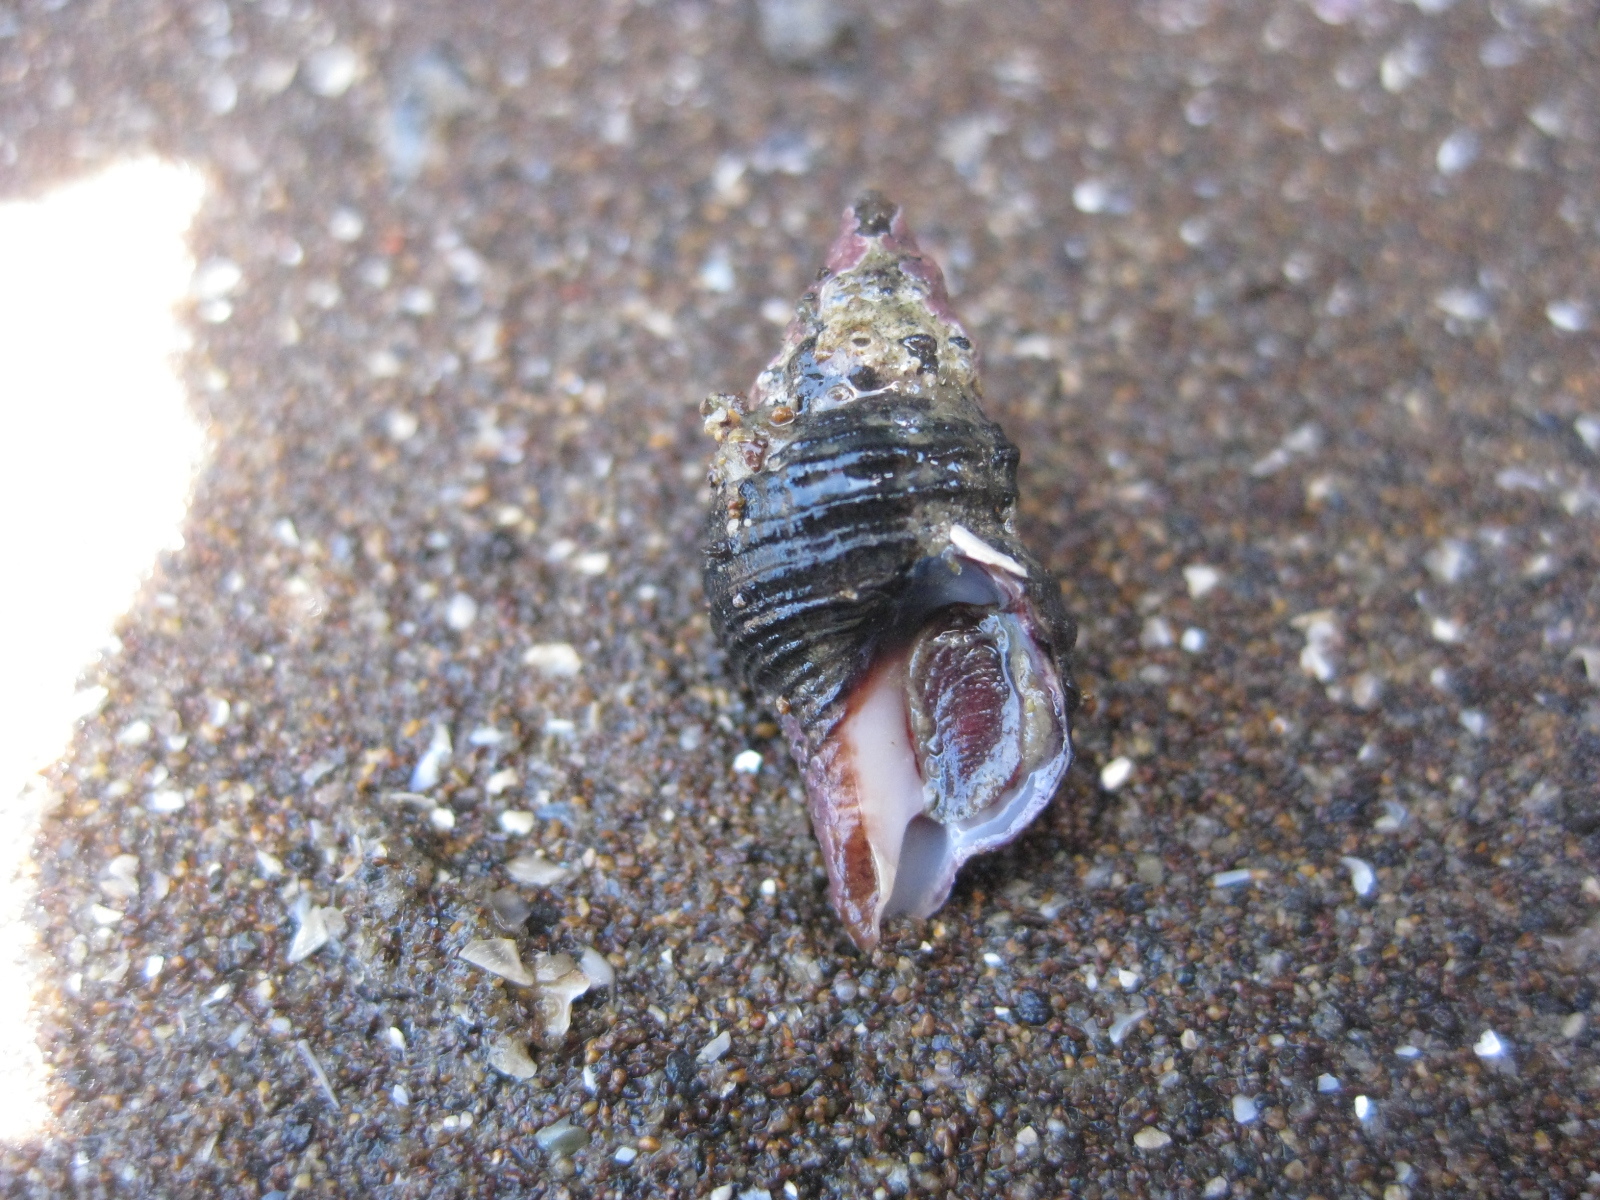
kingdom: Animalia
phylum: Mollusca
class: Gastropoda
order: Neogastropoda
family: Fasciolariidae
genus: Taron
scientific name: Taron dubius
